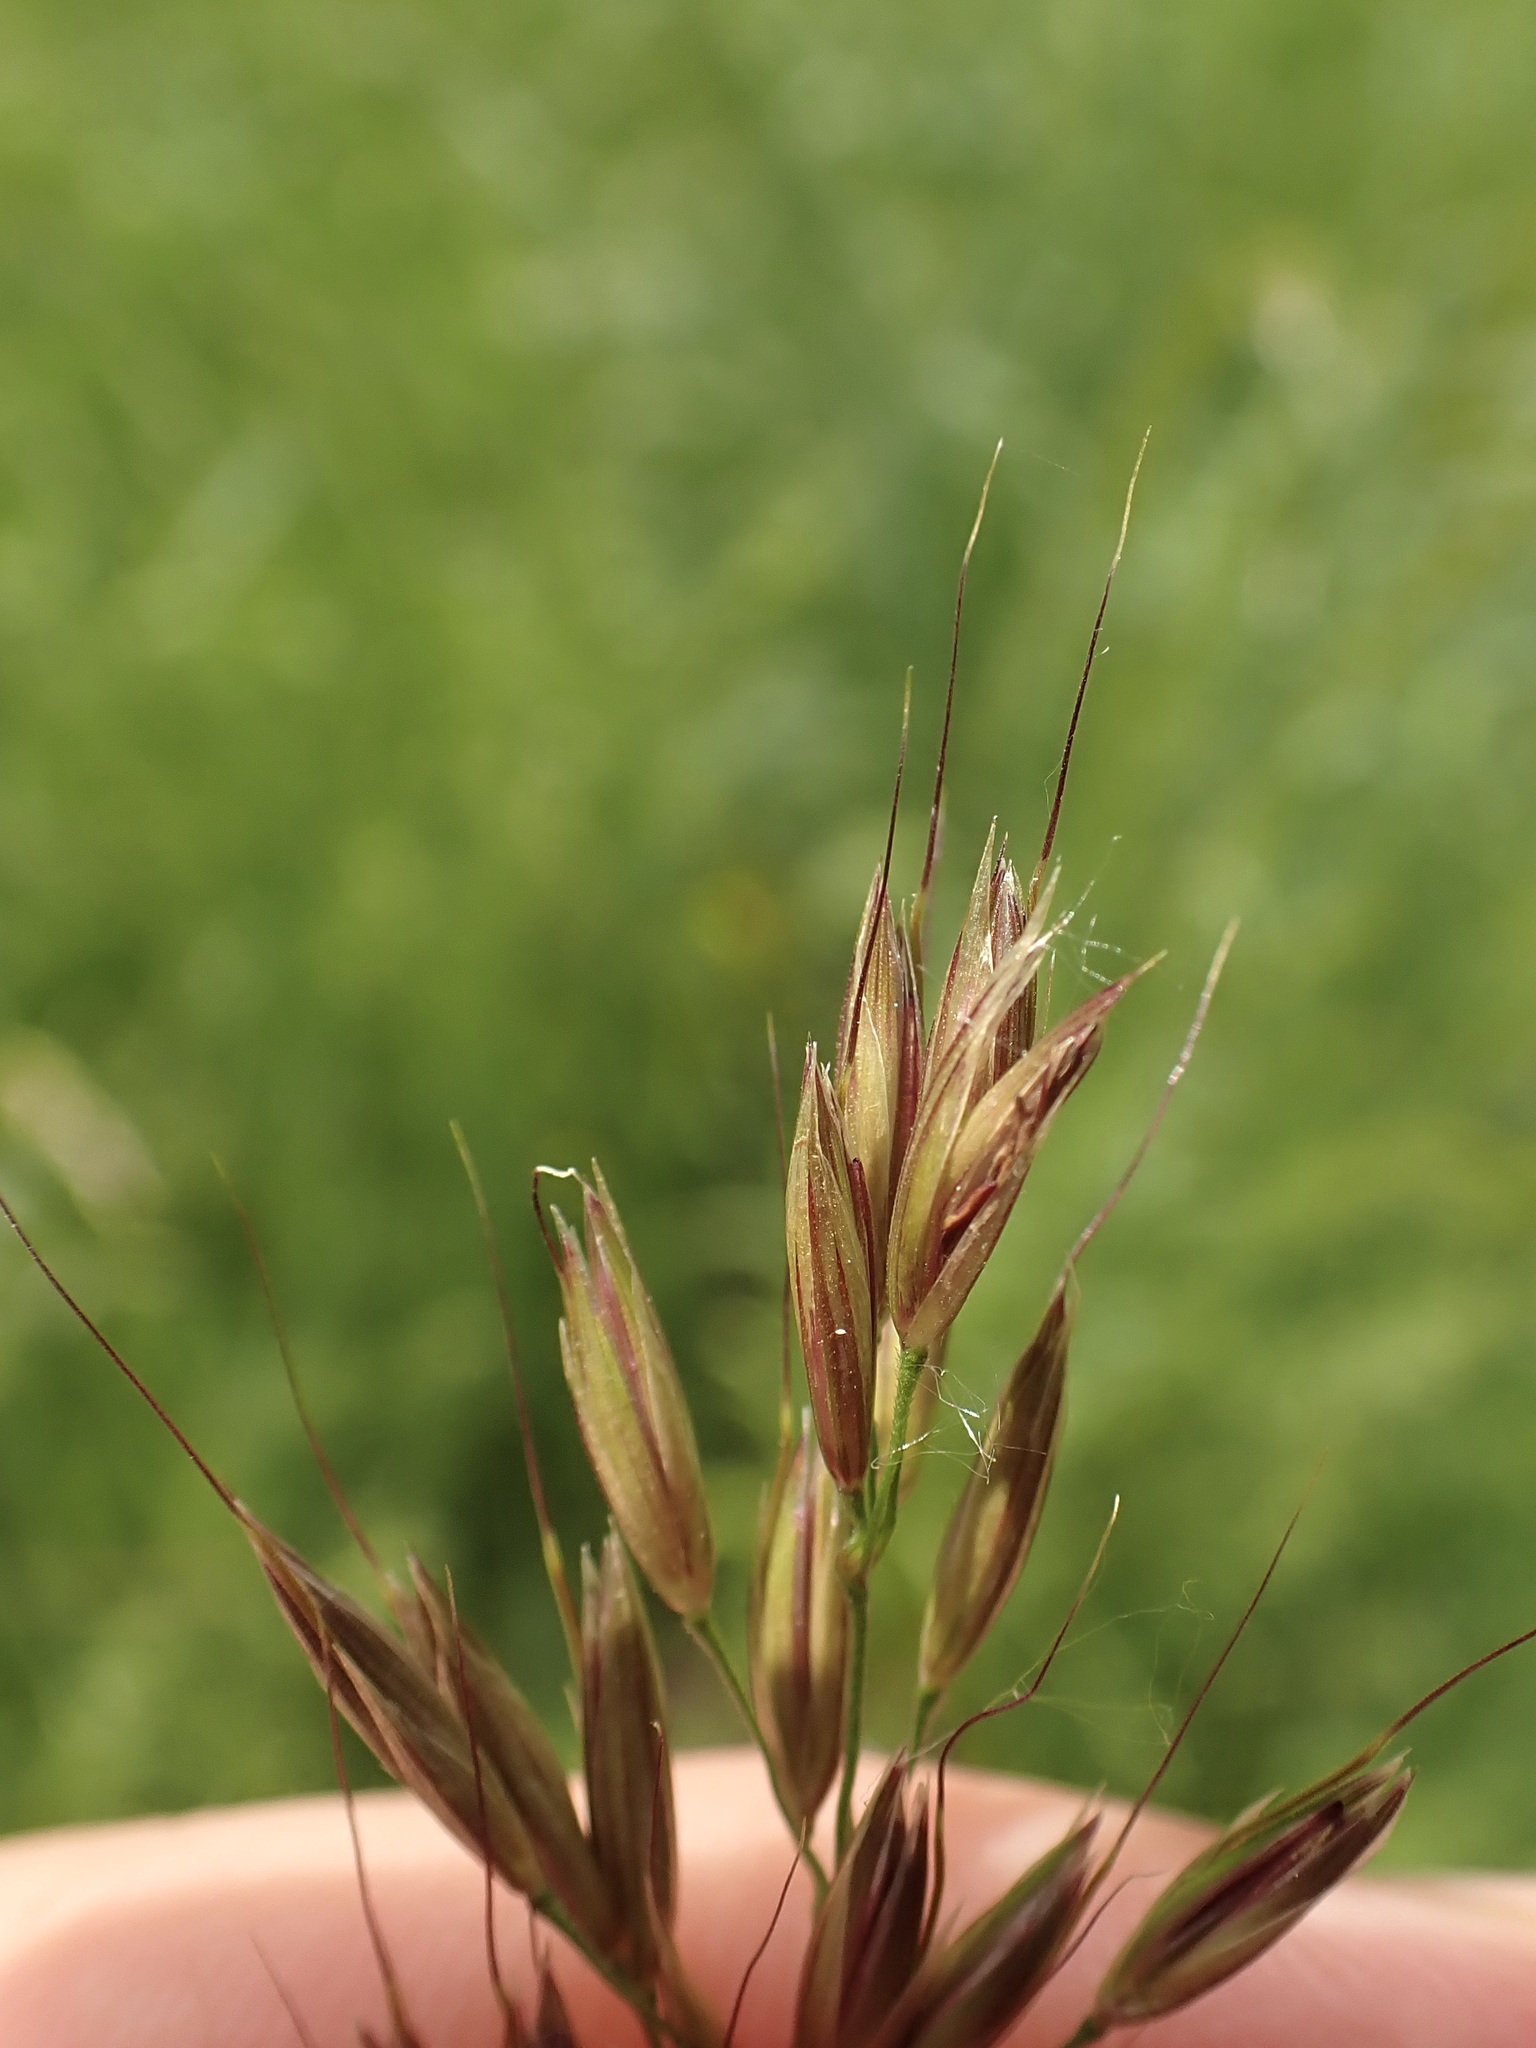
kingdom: Plantae
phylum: Tracheophyta
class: Liliopsida
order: Poales
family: Poaceae
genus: Arrhenatherum
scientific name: Arrhenatherum elatius
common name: Tall oatgrass
